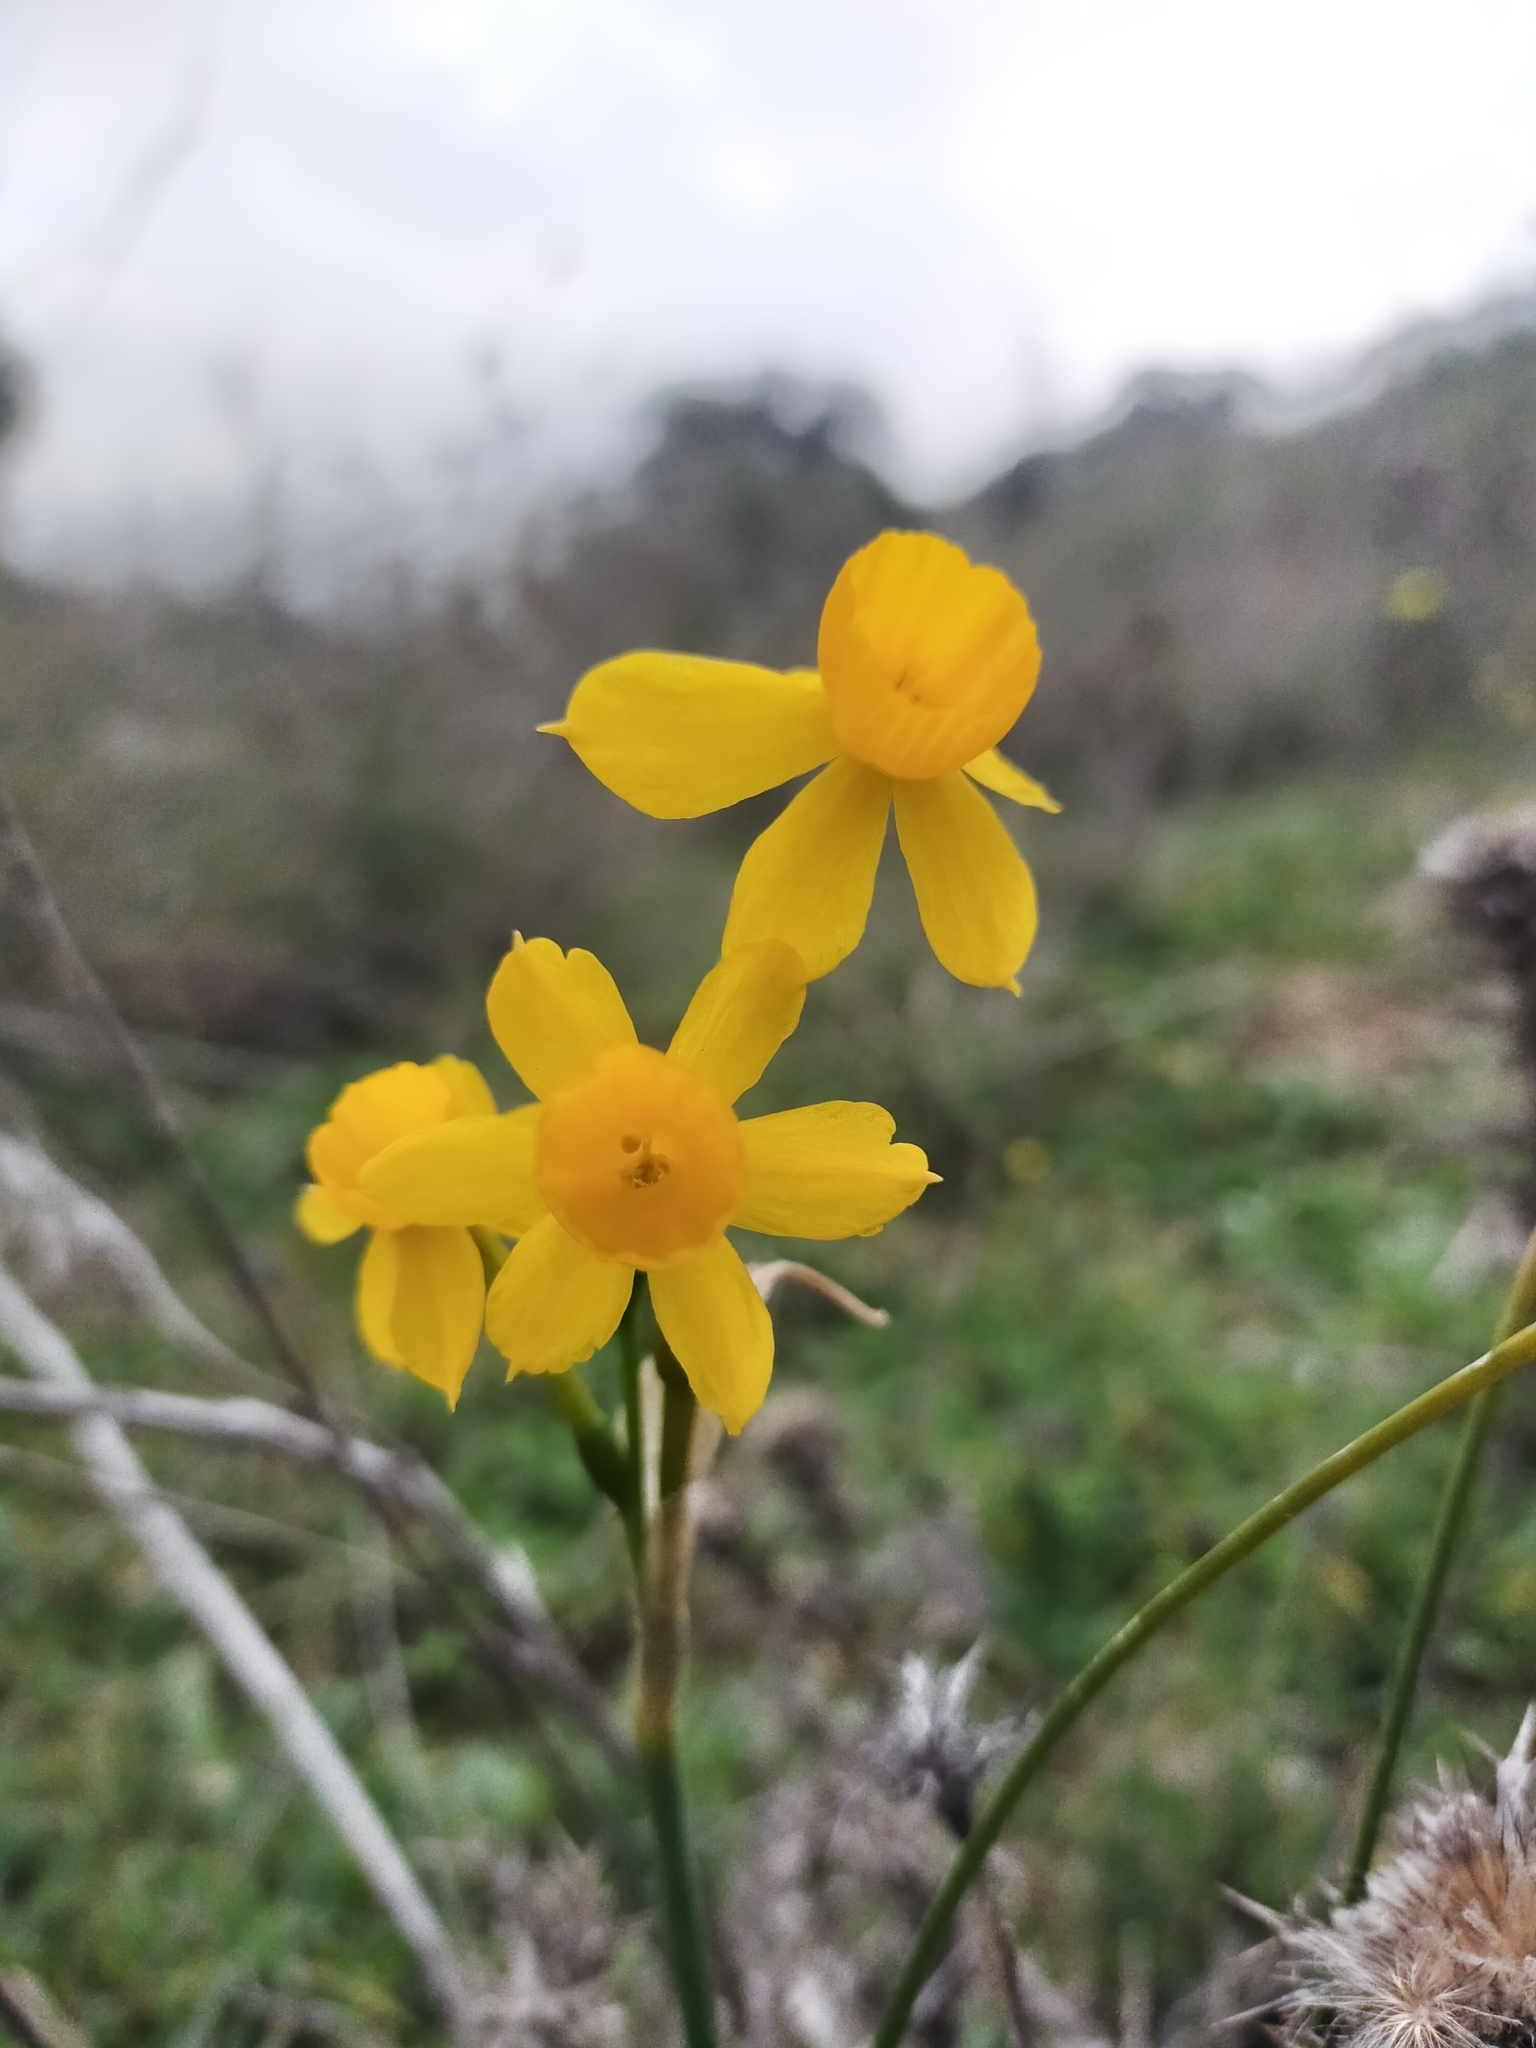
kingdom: Plantae
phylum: Tracheophyta
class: Liliopsida
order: Asparagales
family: Amaryllidaceae
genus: Narcissus
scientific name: Narcissus flavus
